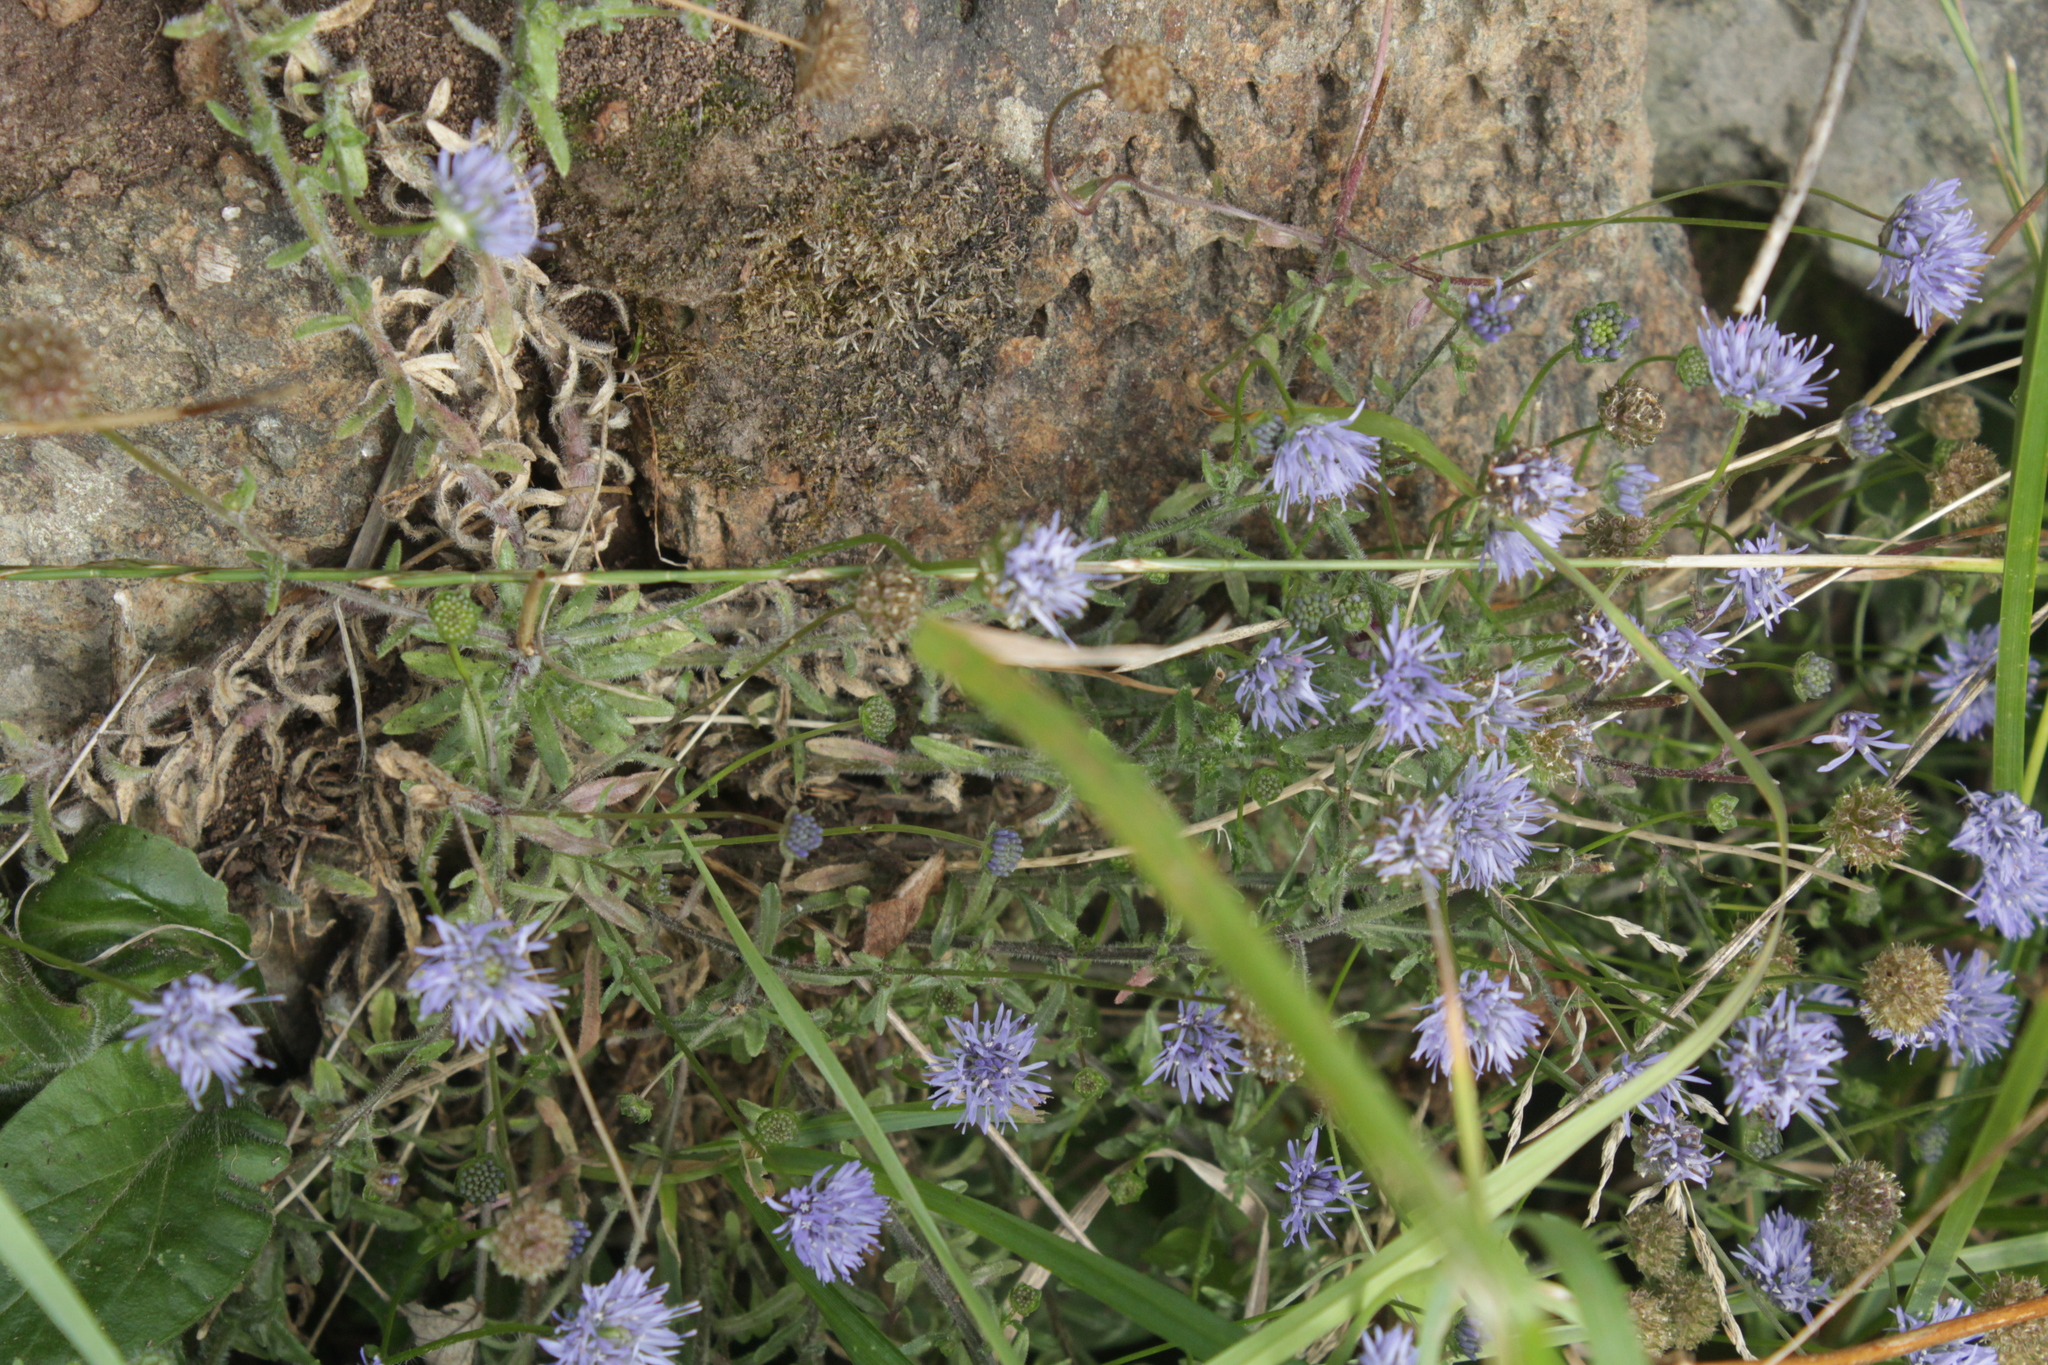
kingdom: Plantae
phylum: Tracheophyta
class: Magnoliopsida
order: Asterales
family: Campanulaceae
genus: Jasione
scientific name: Jasione montana
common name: Sheep's-bit
